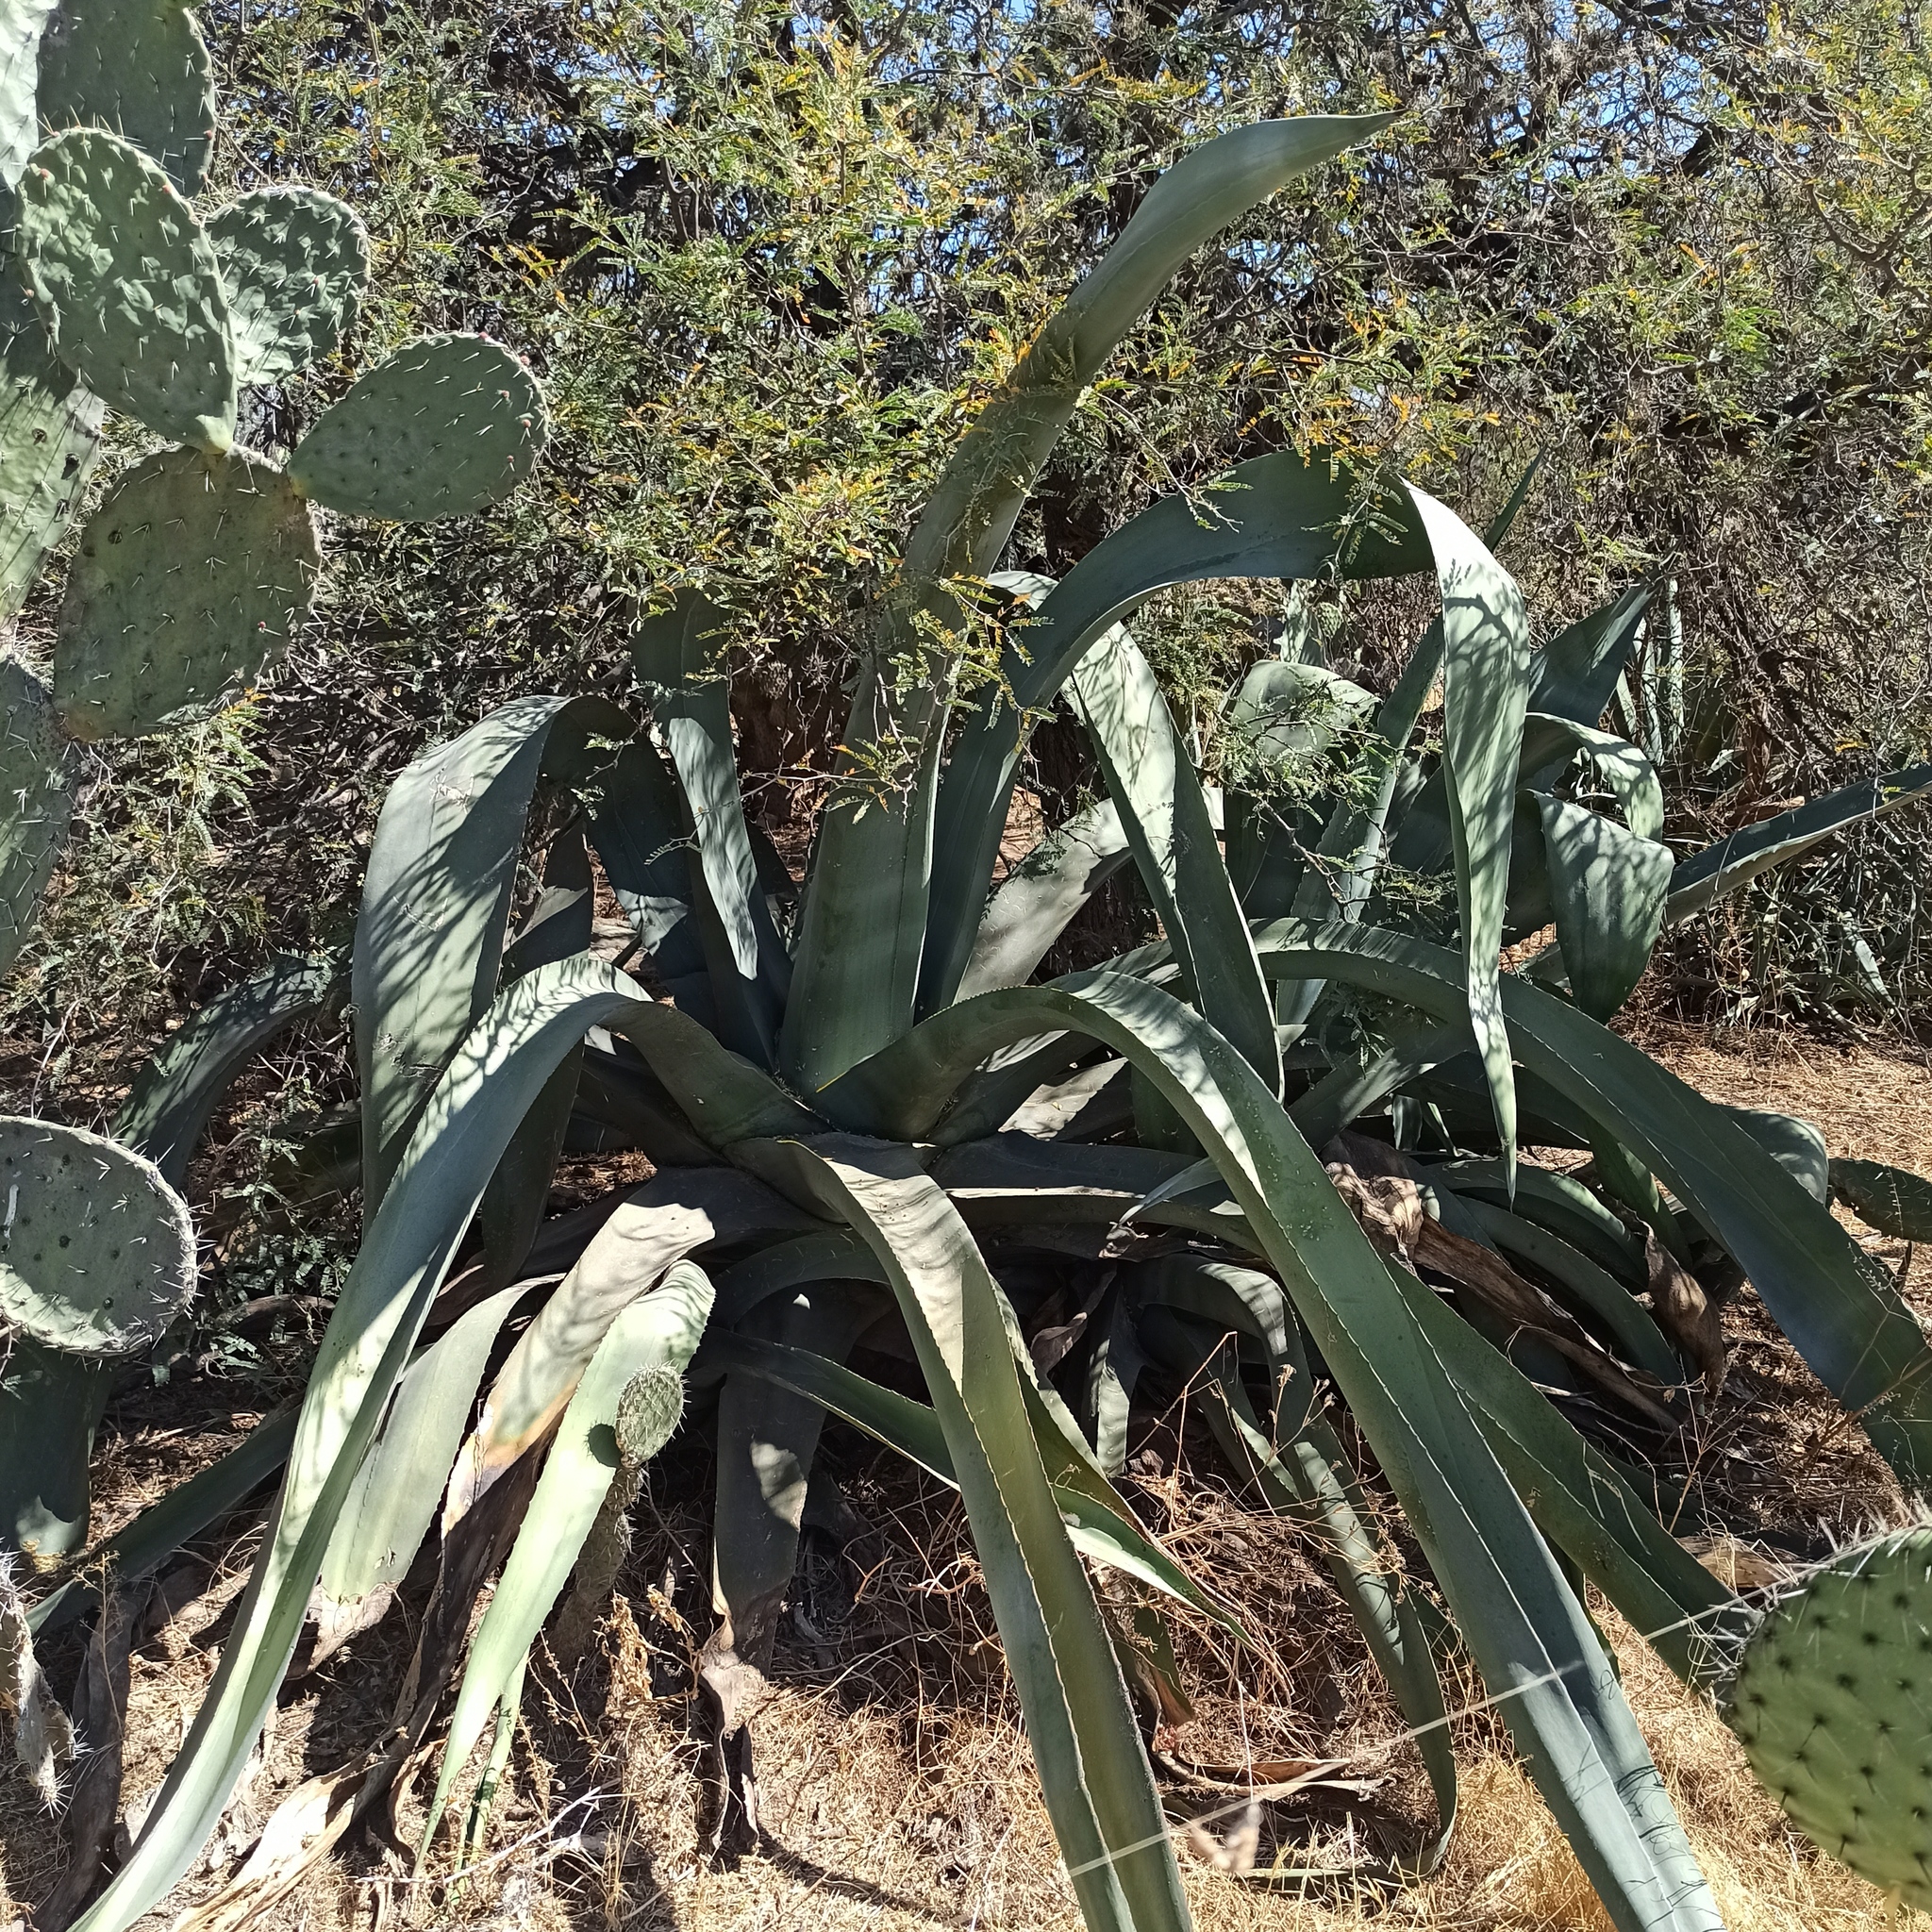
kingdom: Plantae
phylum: Tracheophyta
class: Liliopsida
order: Asparagales
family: Asparagaceae
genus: Agave
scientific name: Agave mapisaga
